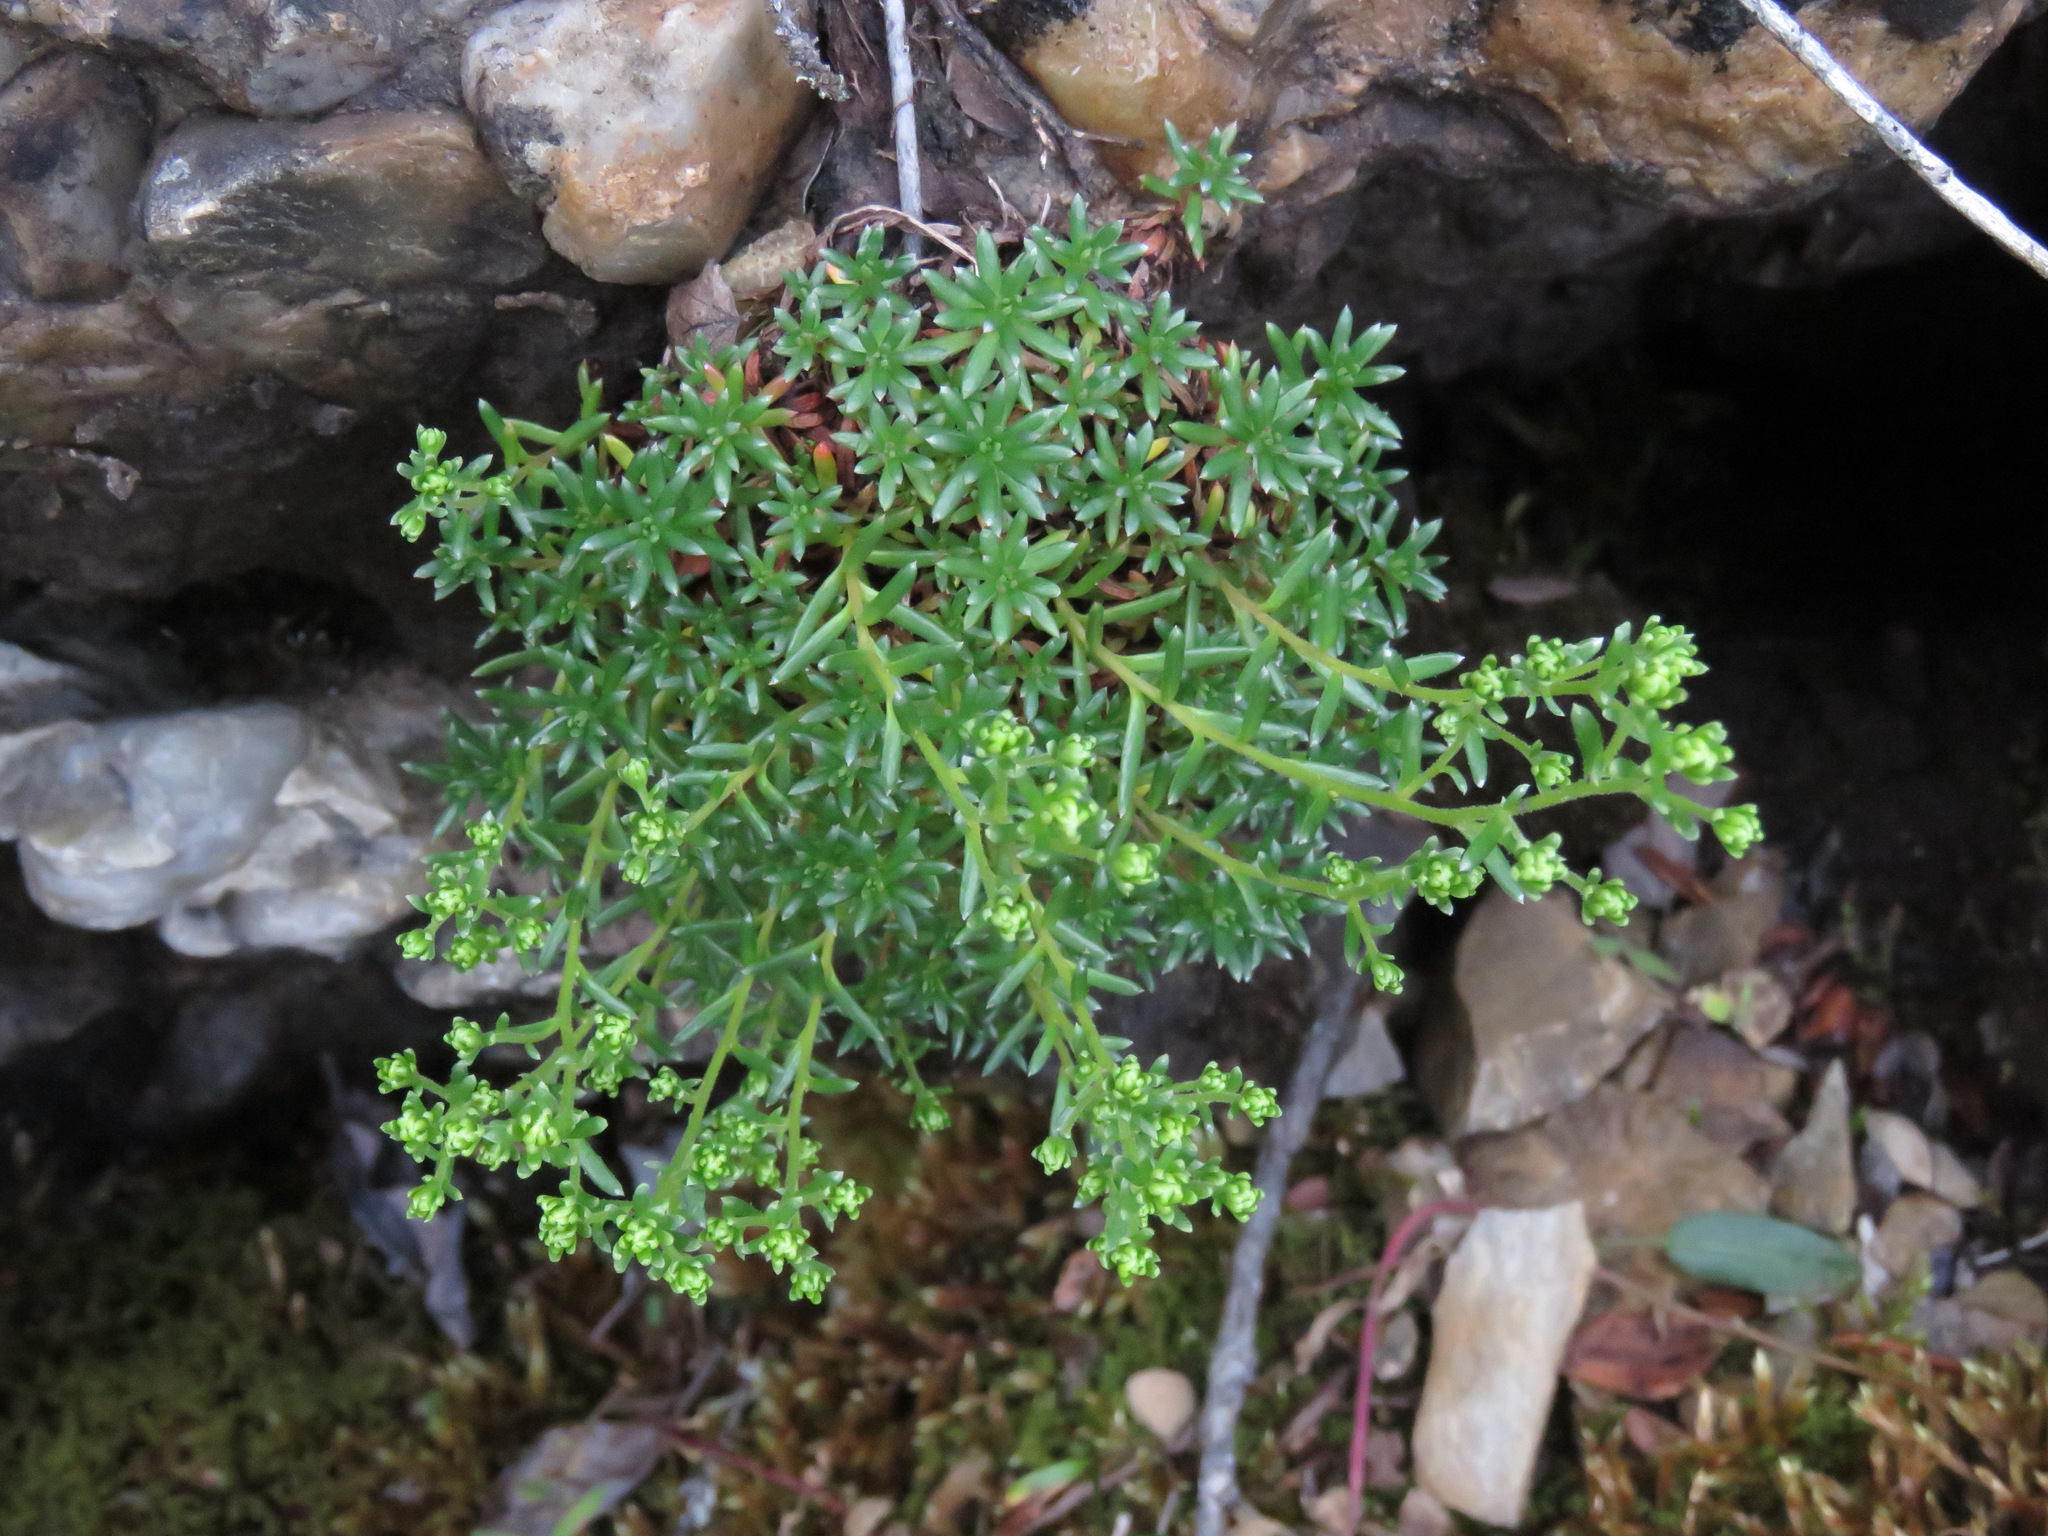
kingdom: Plantae
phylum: Tracheophyta
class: Magnoliopsida
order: Saxifragales
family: Saxifragaceae
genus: Saxifraga
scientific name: Saxifraga aizoides
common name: Yellow mountain saxifrage
